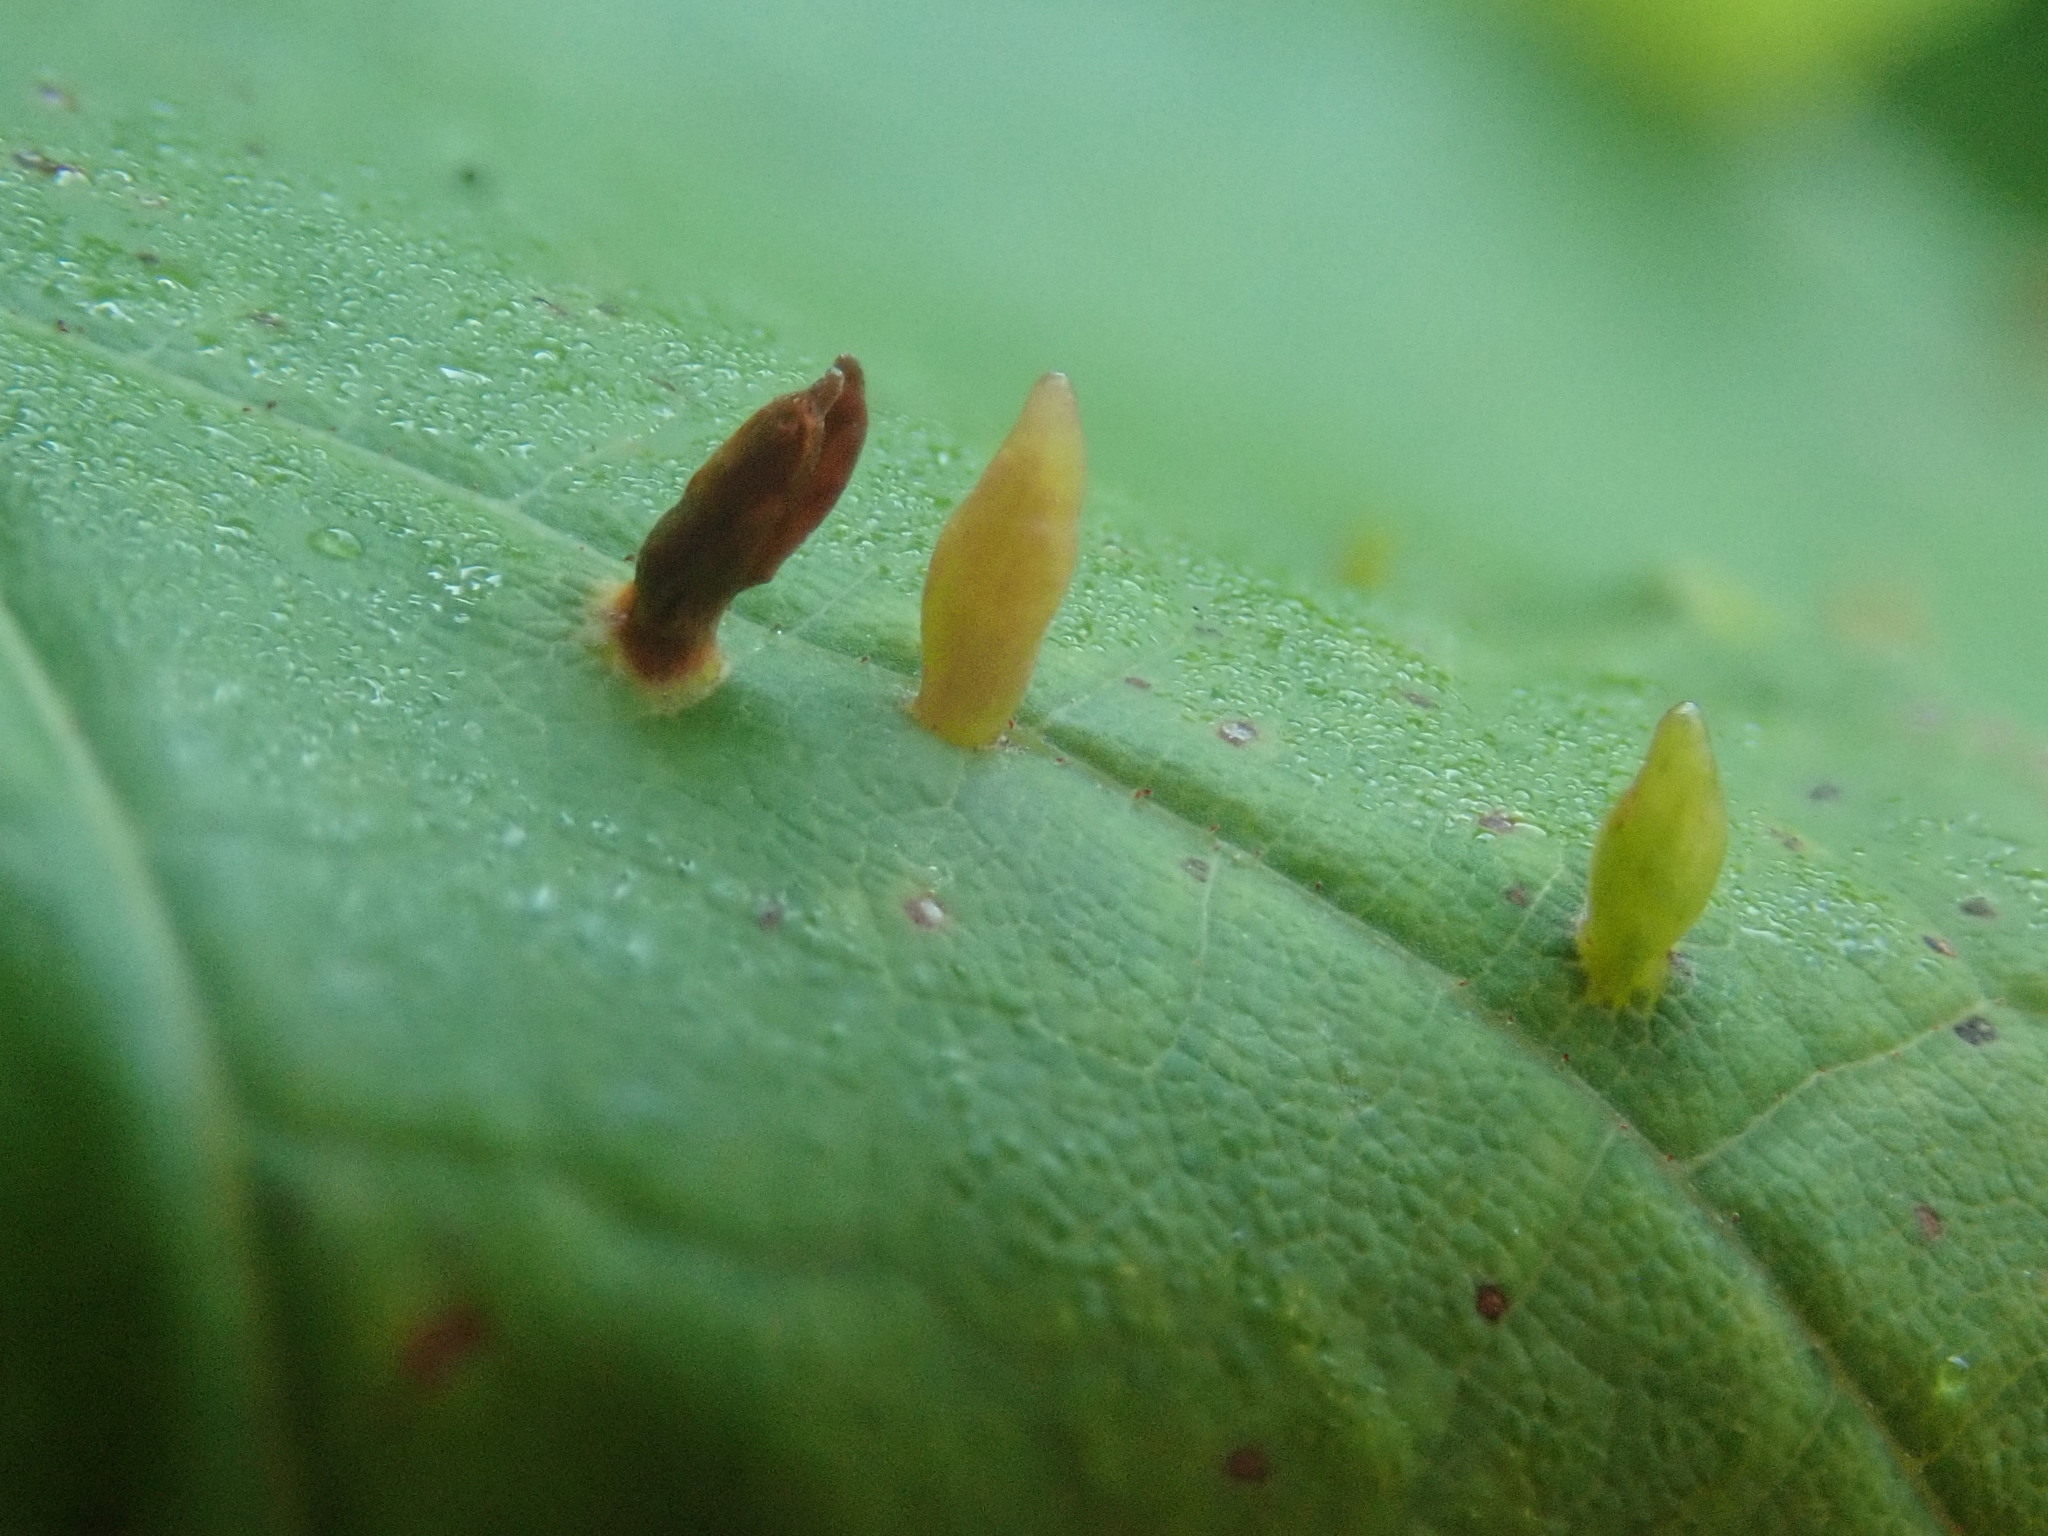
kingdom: Animalia
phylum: Arthropoda
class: Arachnida
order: Trombidiformes
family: Eriophyidae
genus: Vasates
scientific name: Vasates aceriscrumena
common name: Maple spindle gall mite
